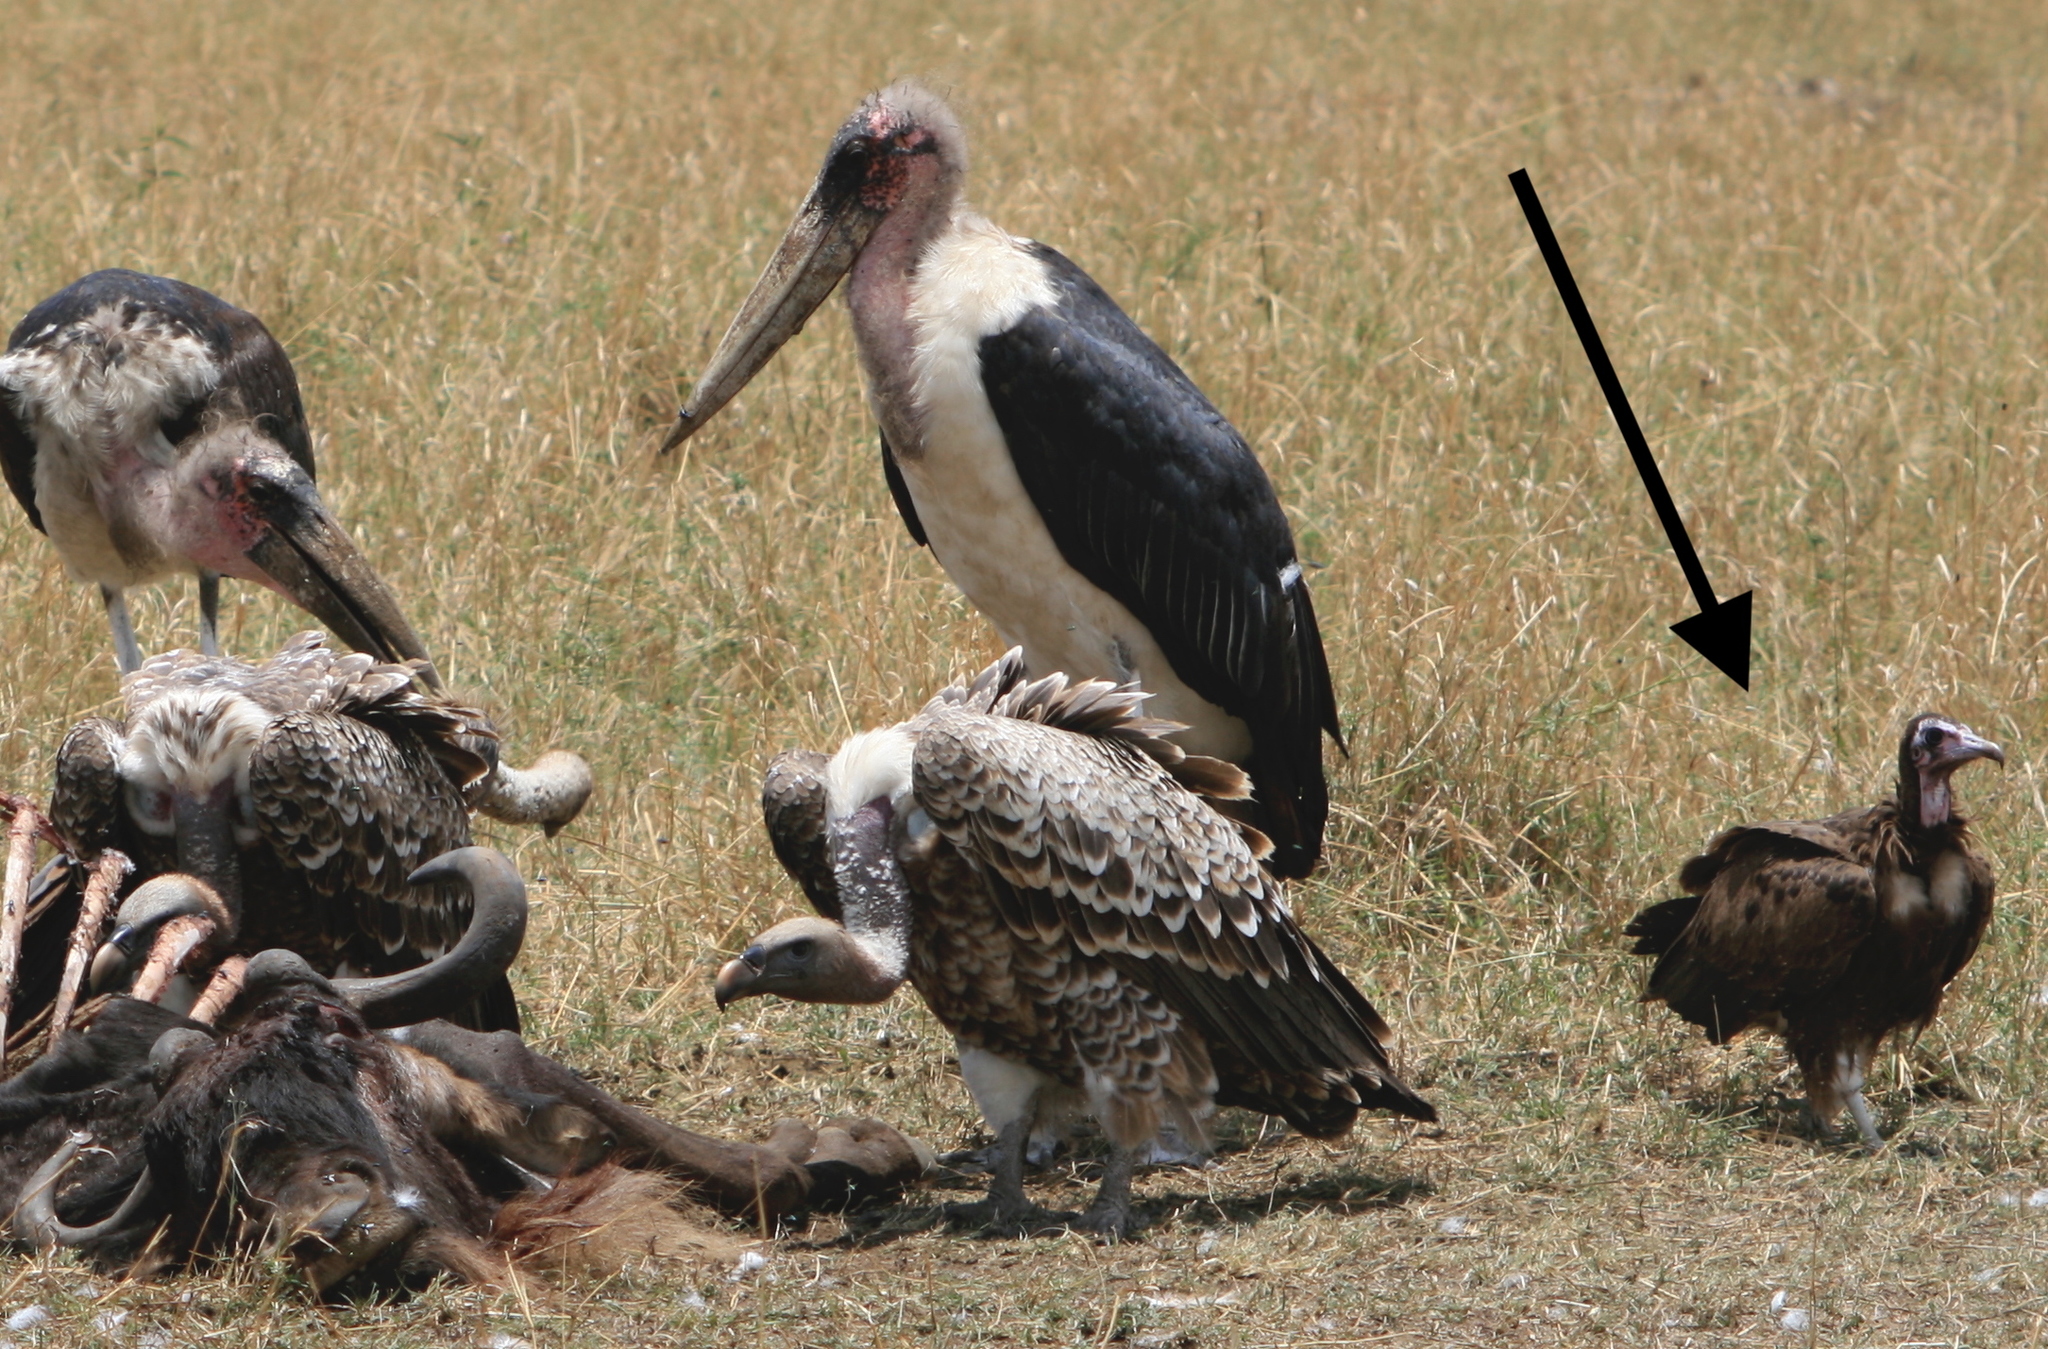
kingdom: Animalia
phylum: Chordata
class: Aves
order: Accipitriformes
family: Accipitridae
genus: Necrosyrtes
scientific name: Necrosyrtes monachus
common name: Hooded vulture
